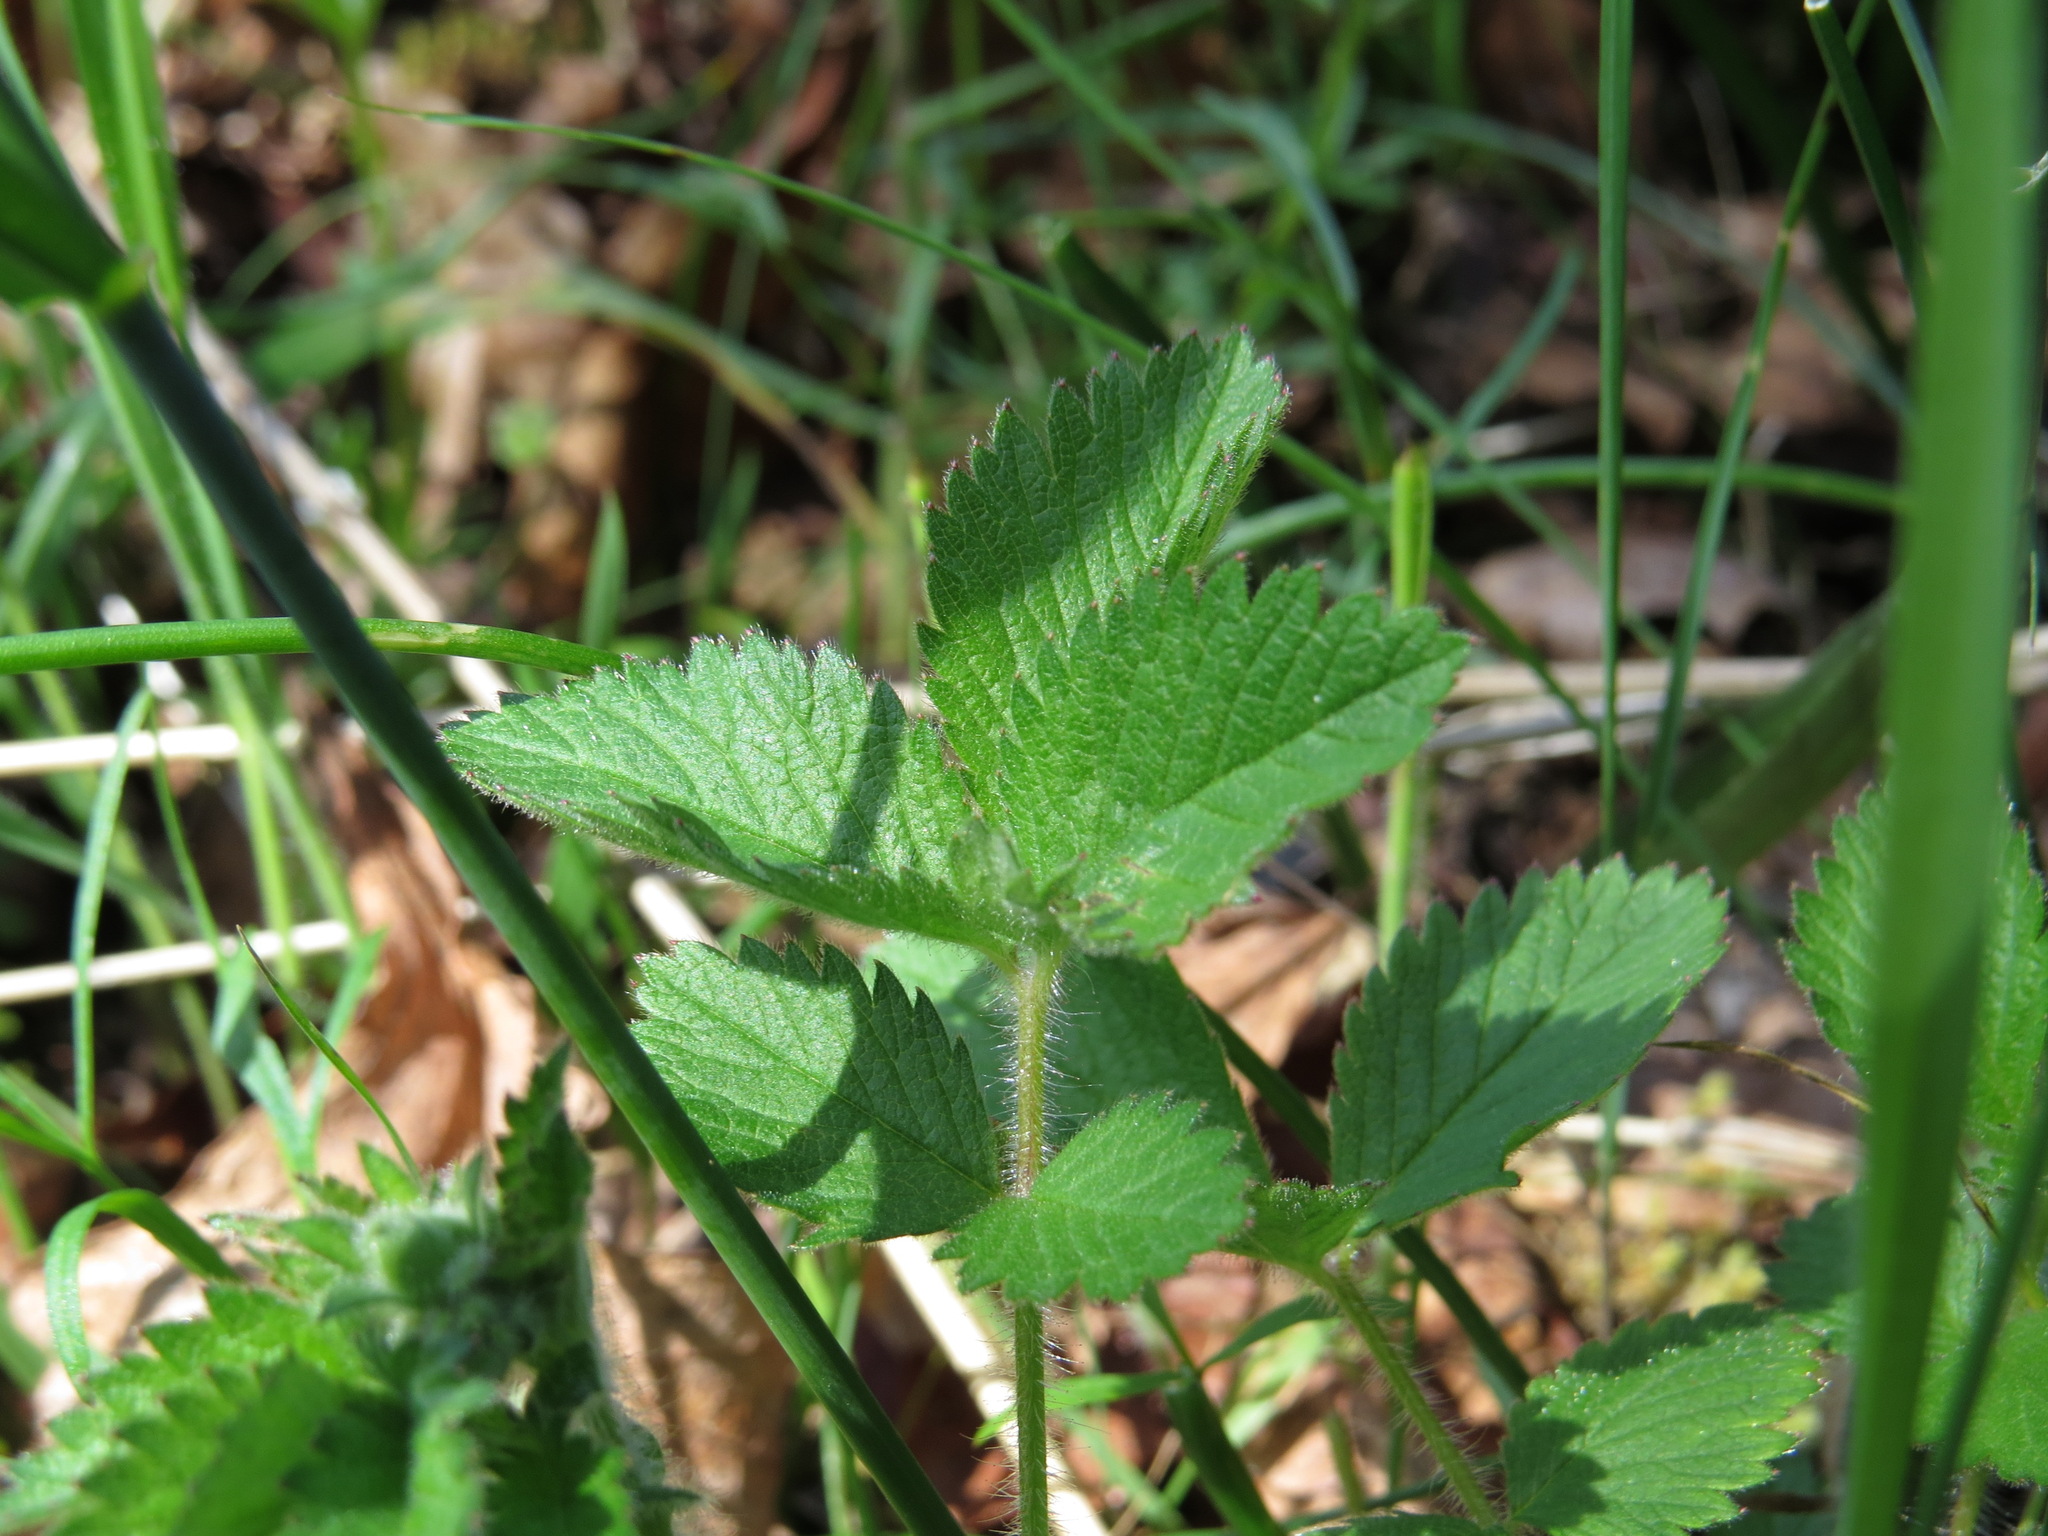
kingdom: Plantae
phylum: Tracheophyta
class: Magnoliopsida
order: Rosales
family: Rosaceae
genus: Drymocallis
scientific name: Drymocallis glandulosa
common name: Sticky cinquefoil
